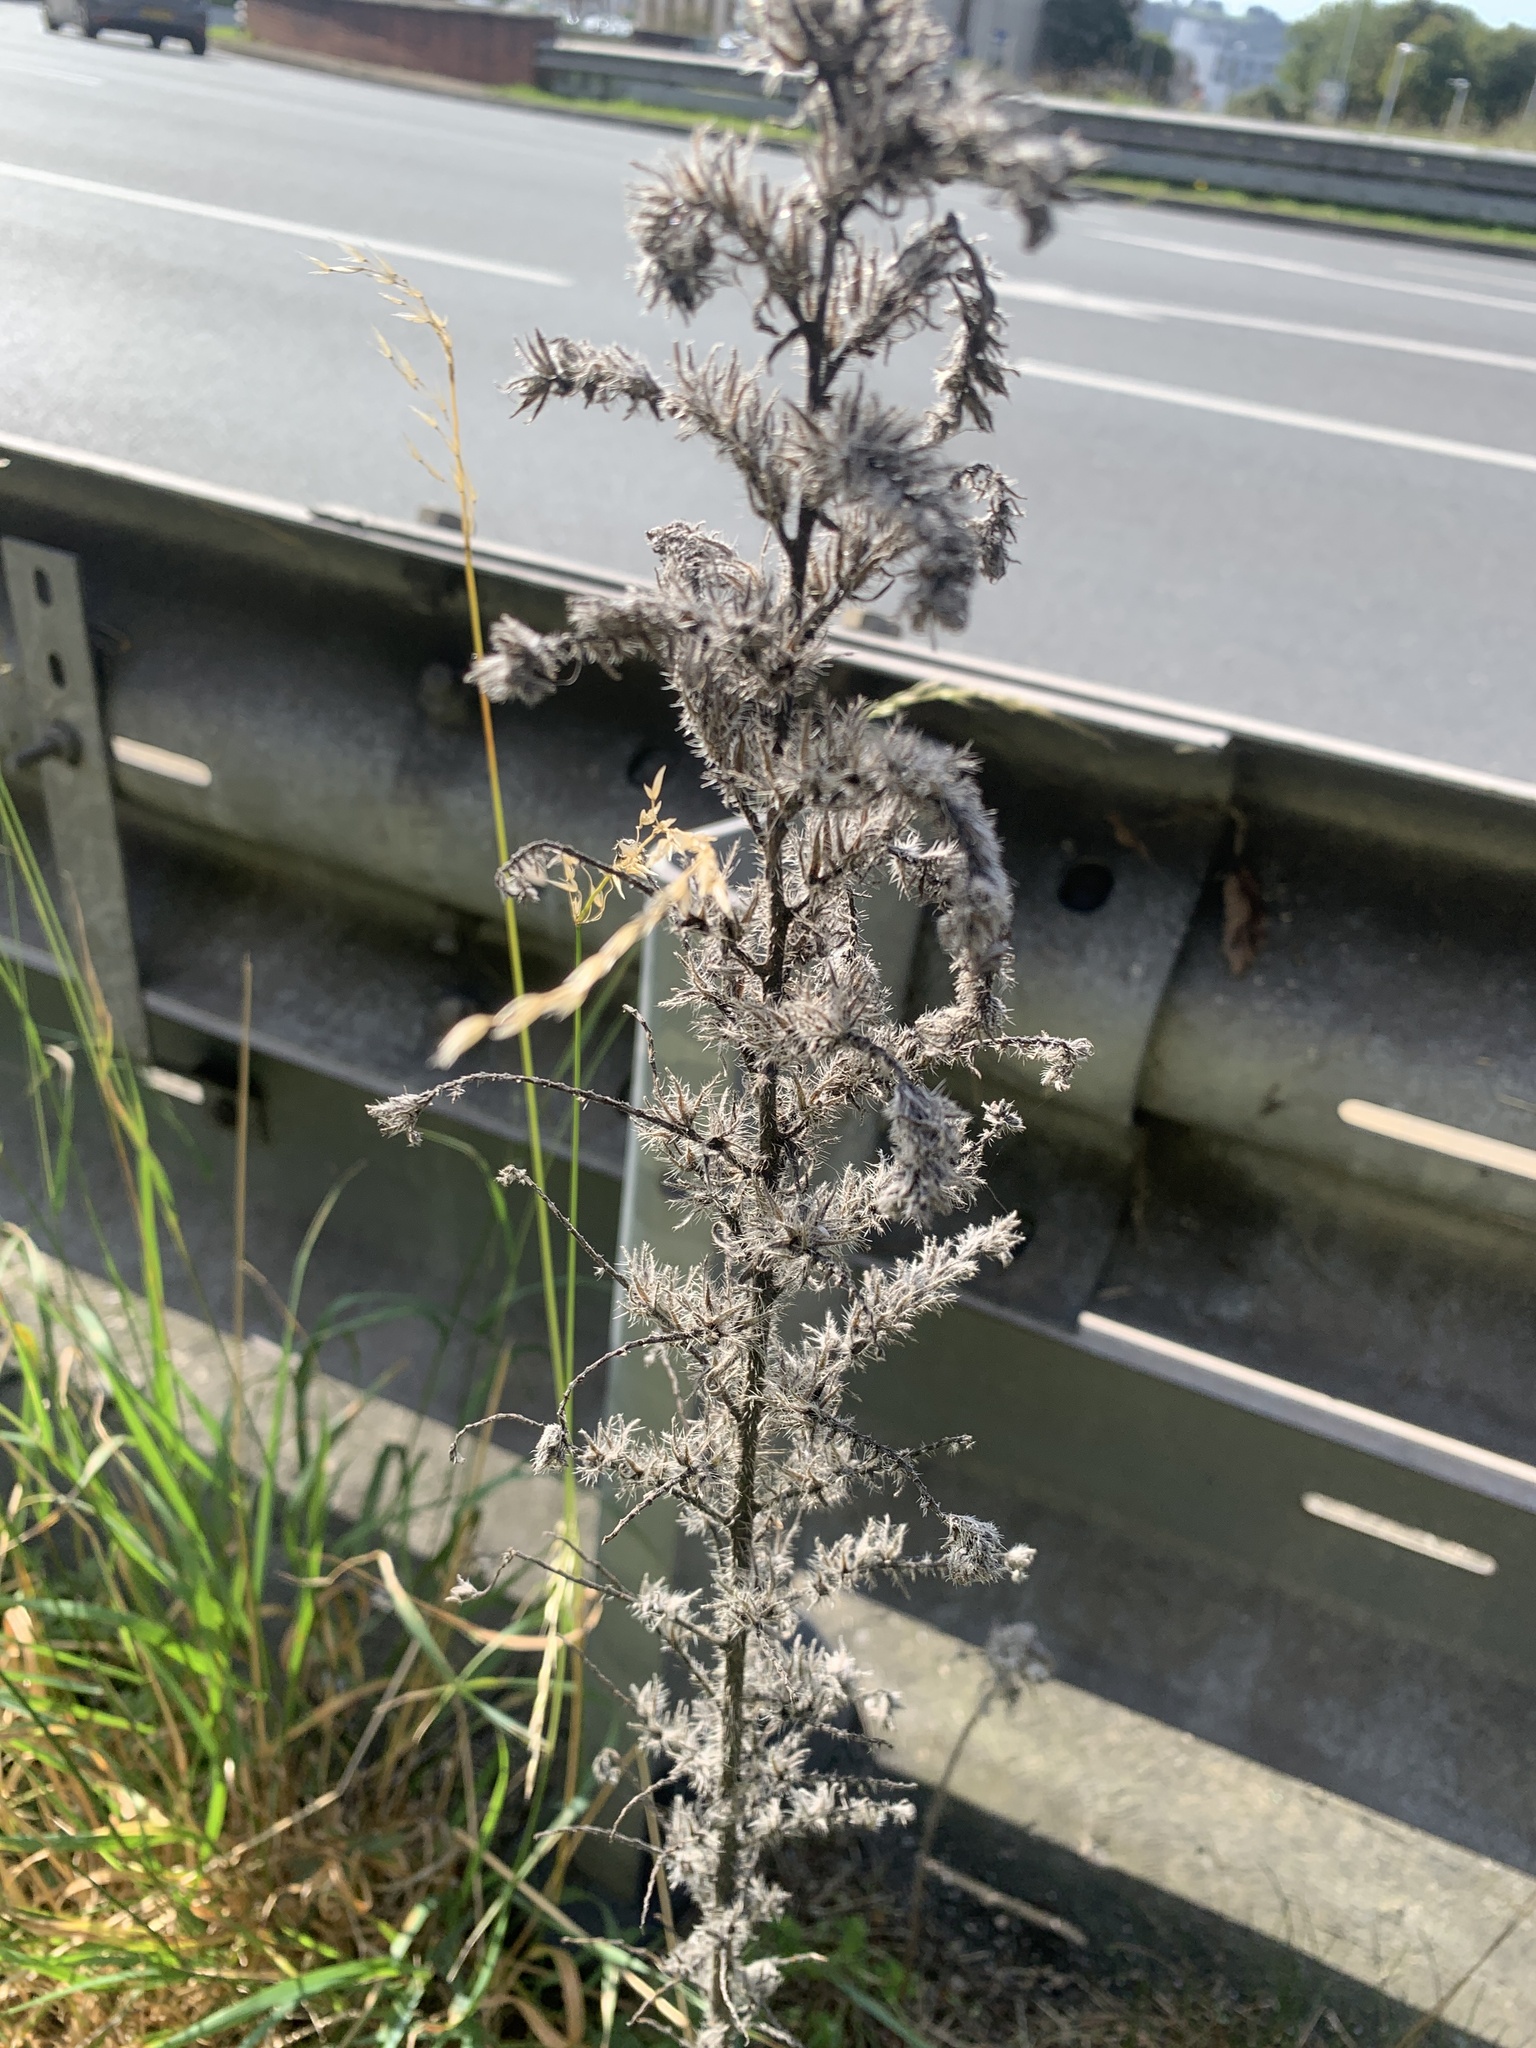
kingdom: Plantae
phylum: Tracheophyta
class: Magnoliopsida
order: Boraginales
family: Boraginaceae
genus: Echium
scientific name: Echium vulgare
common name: Common viper's bugloss
